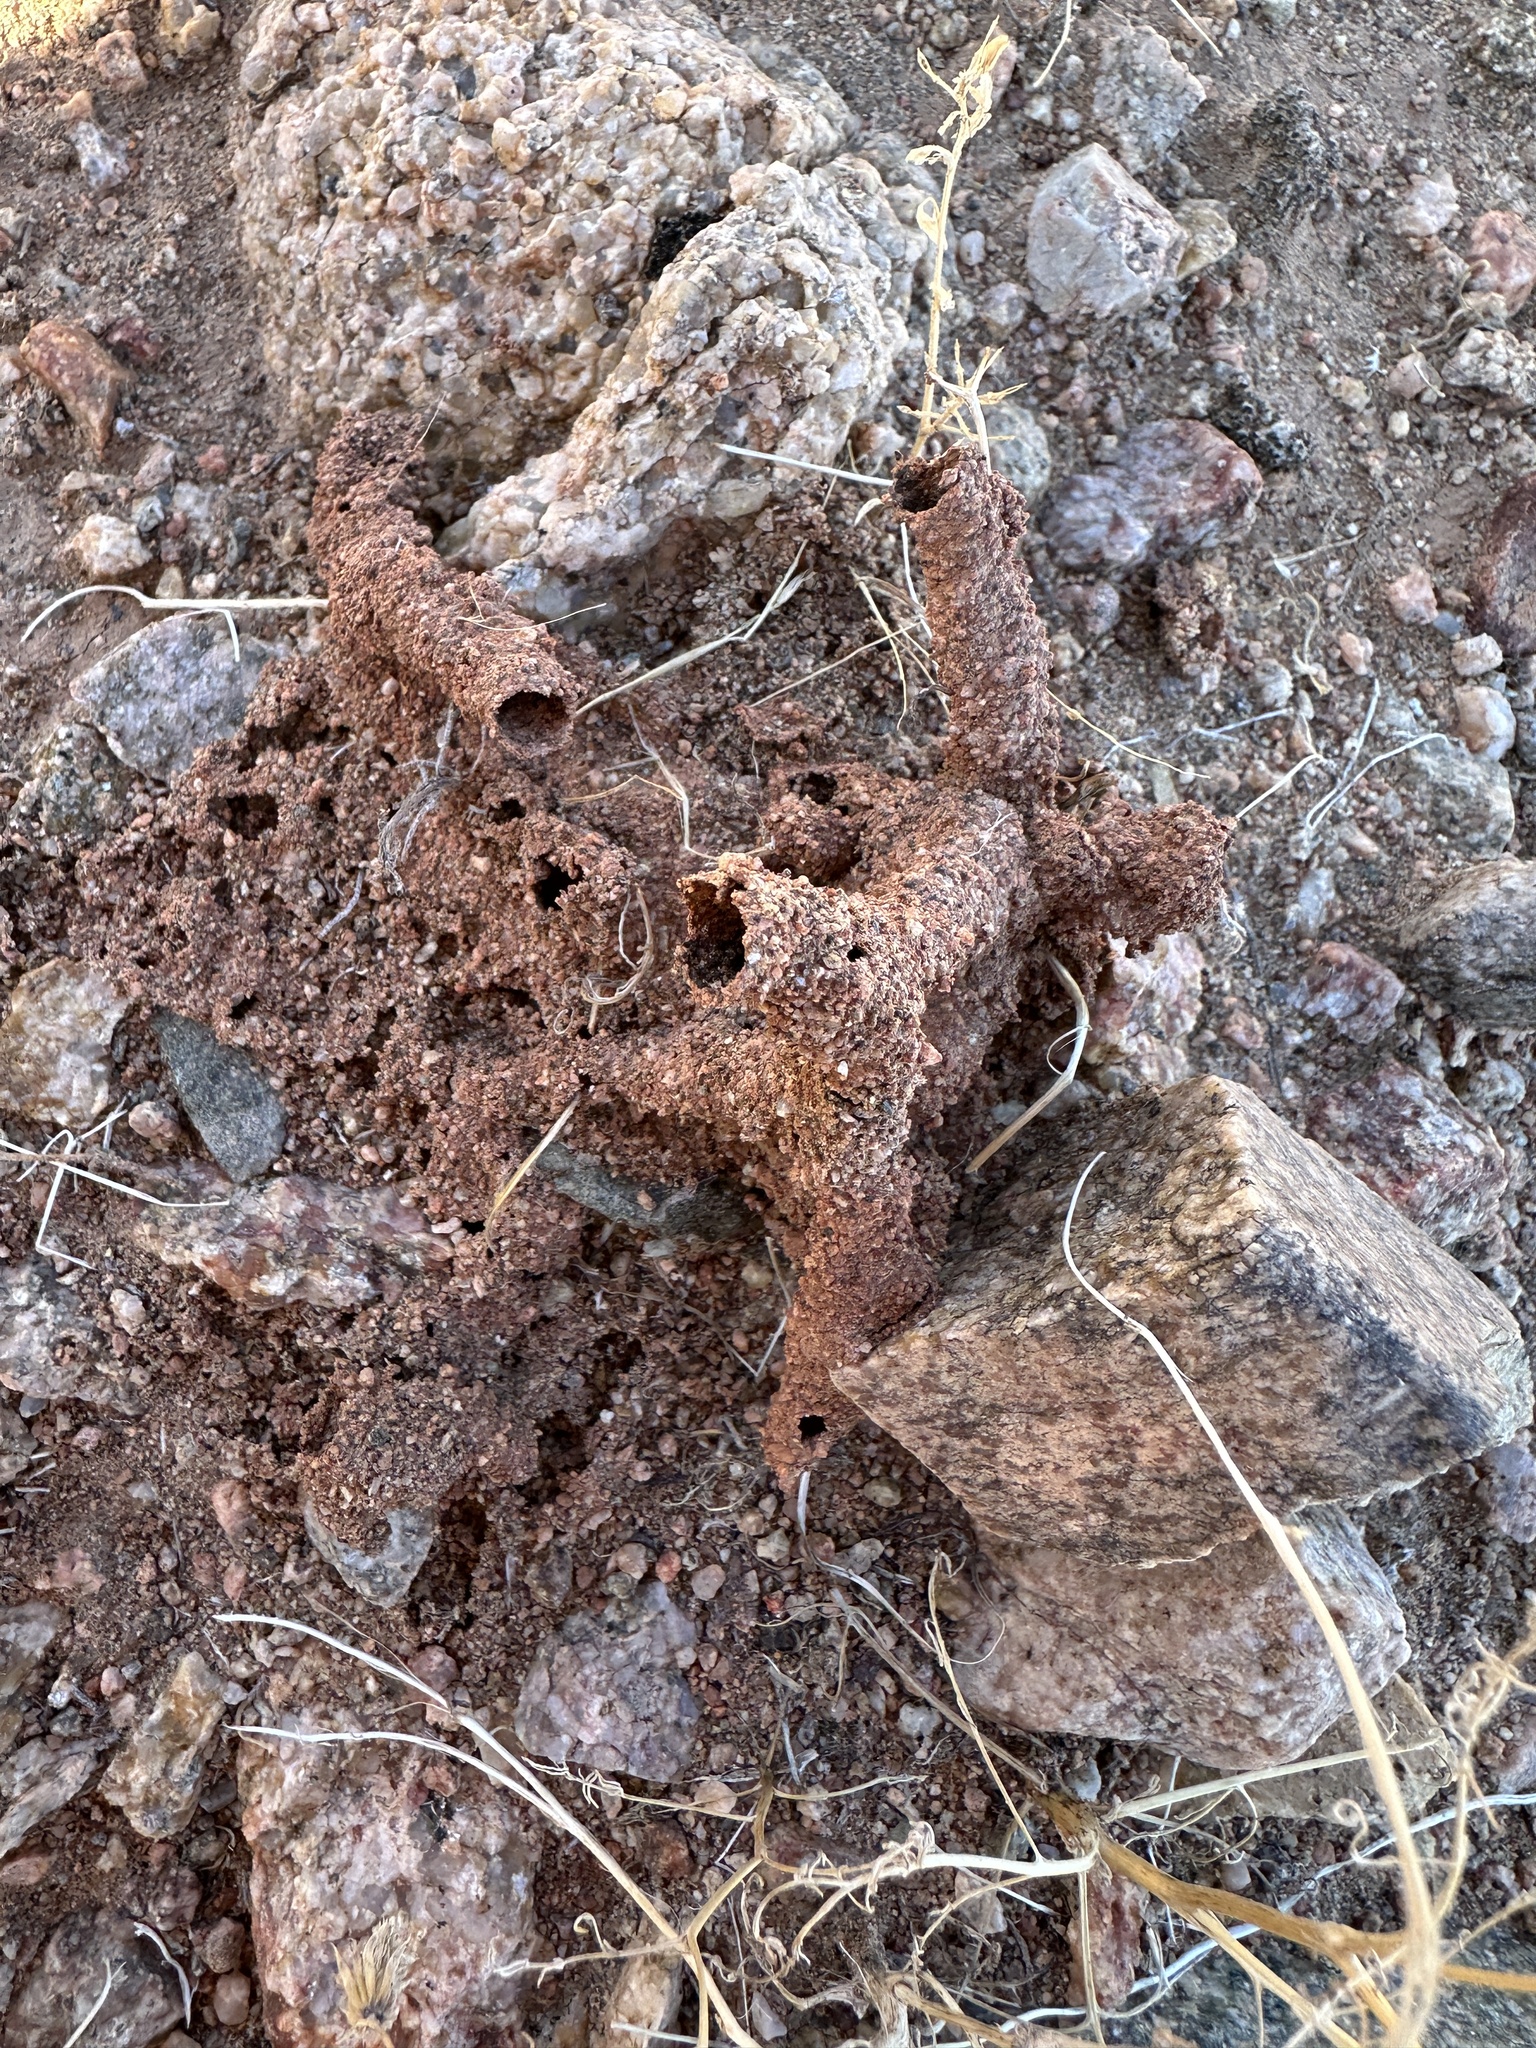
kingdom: Animalia
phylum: Arthropoda
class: Insecta
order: Blattodea
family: Termitidae
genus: Gnathamitermes
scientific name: Gnathamitermes
